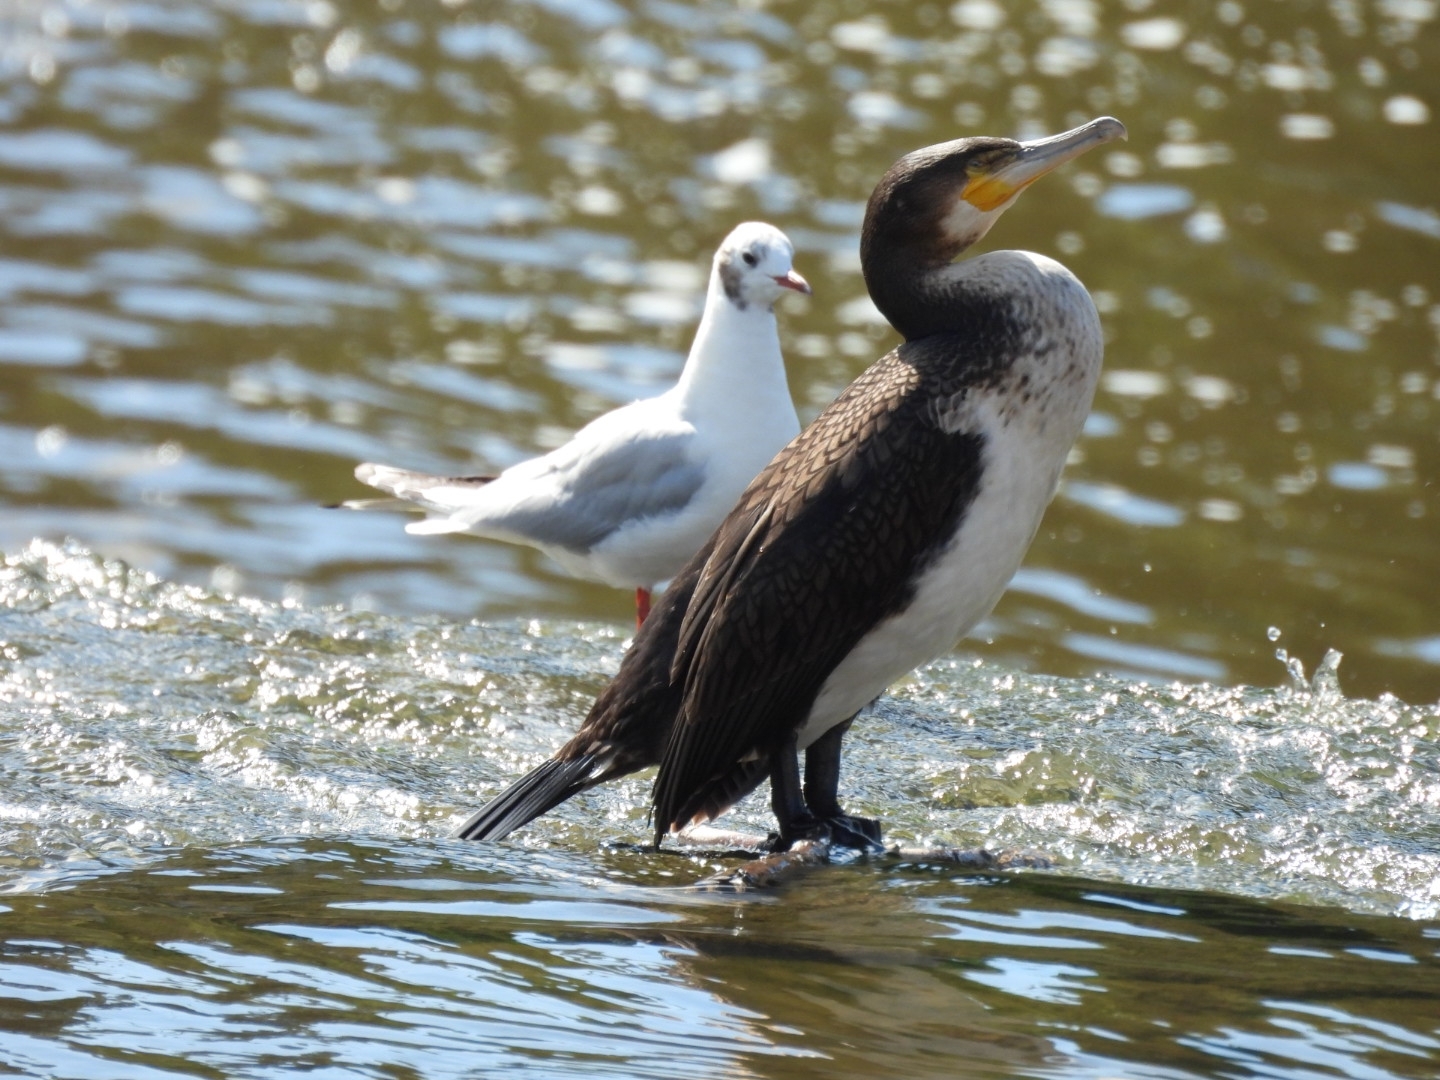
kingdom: Animalia
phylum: Chordata
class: Aves
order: Suliformes
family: Phalacrocoracidae
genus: Phalacrocorax
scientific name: Phalacrocorax carbo
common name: Great cormorant
